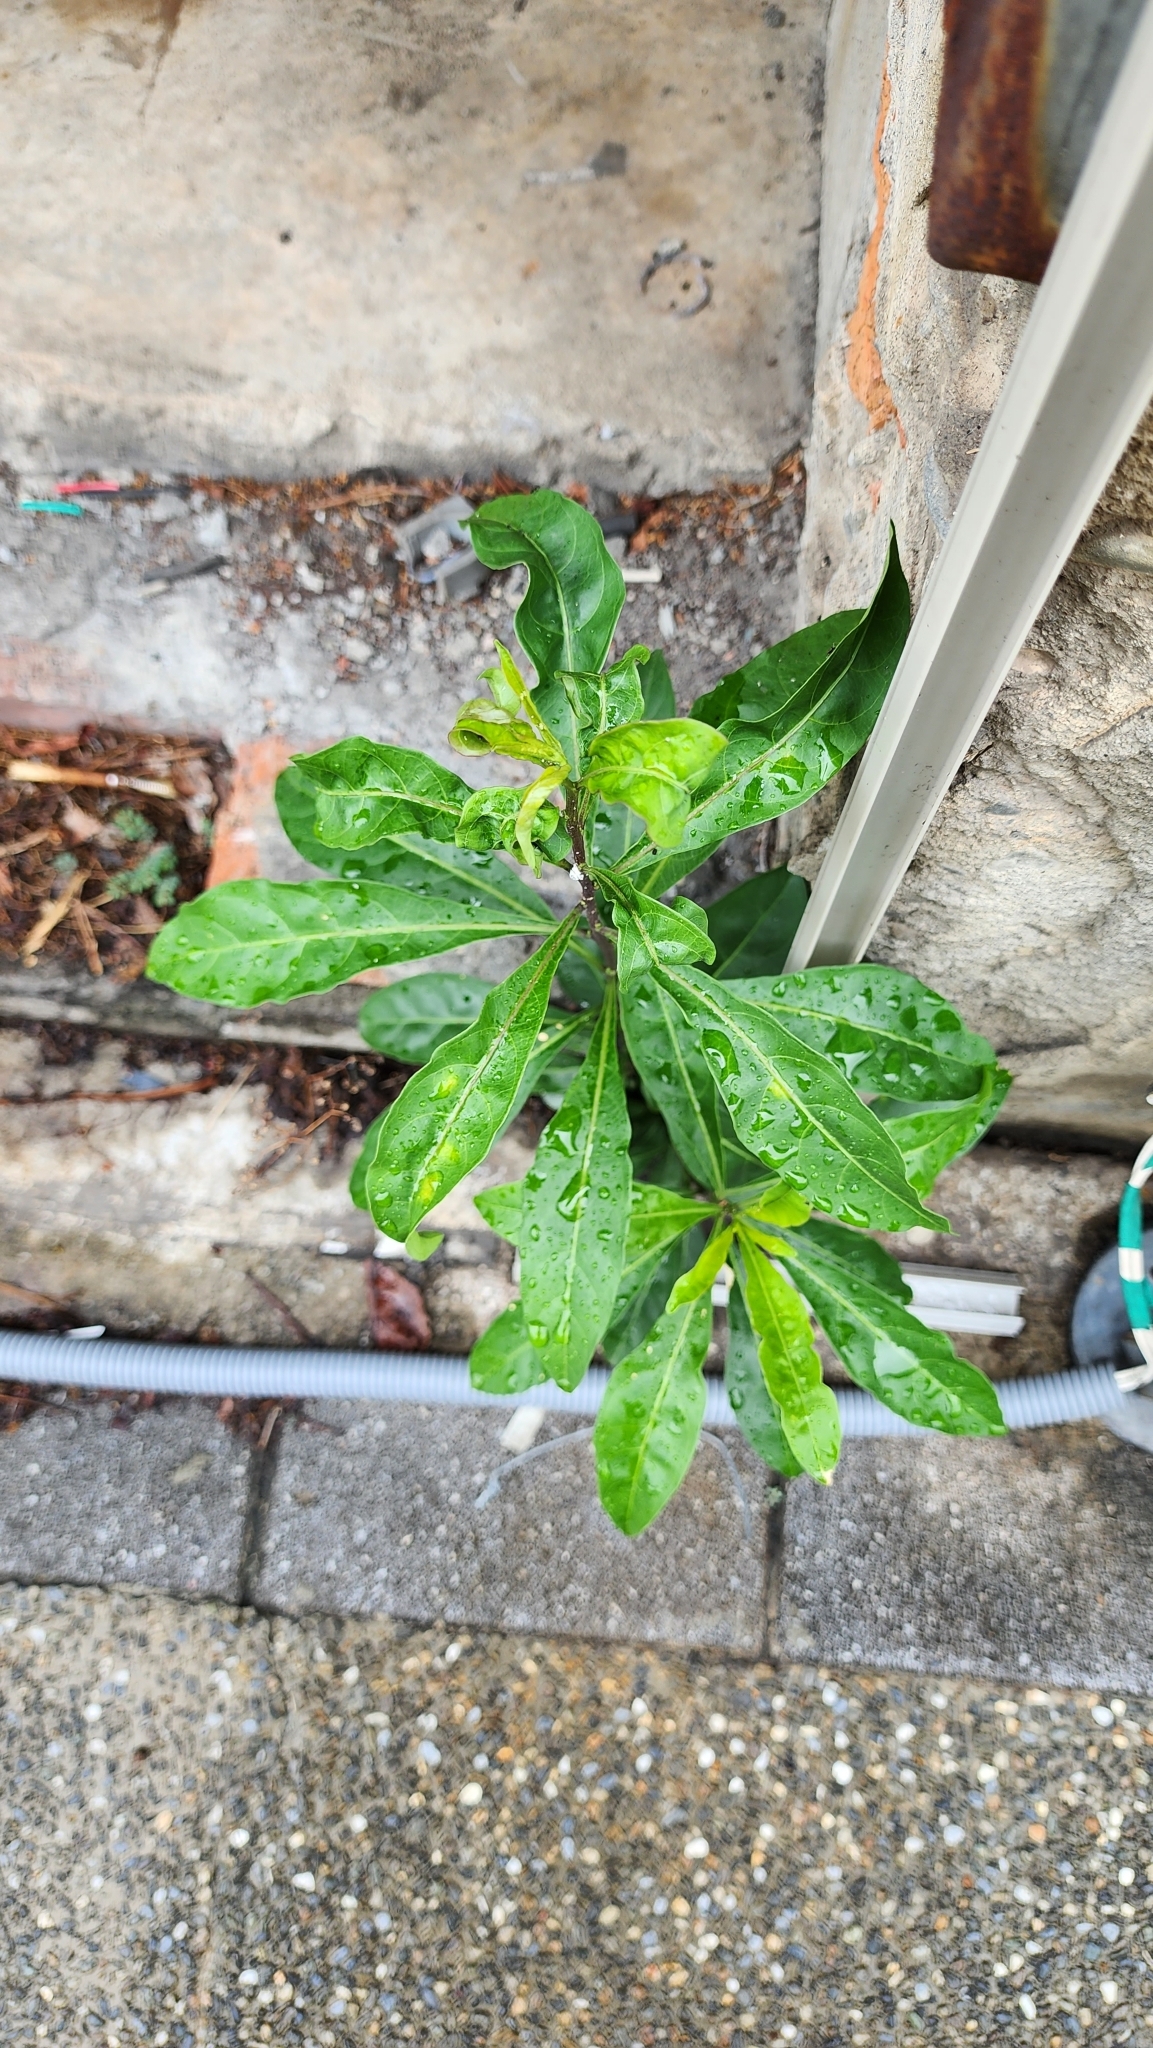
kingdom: Plantae
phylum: Tracheophyta
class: Magnoliopsida
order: Solanales
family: Solanaceae
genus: Solanum
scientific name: Solanum diphyllum
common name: Twoleaf nightshade
